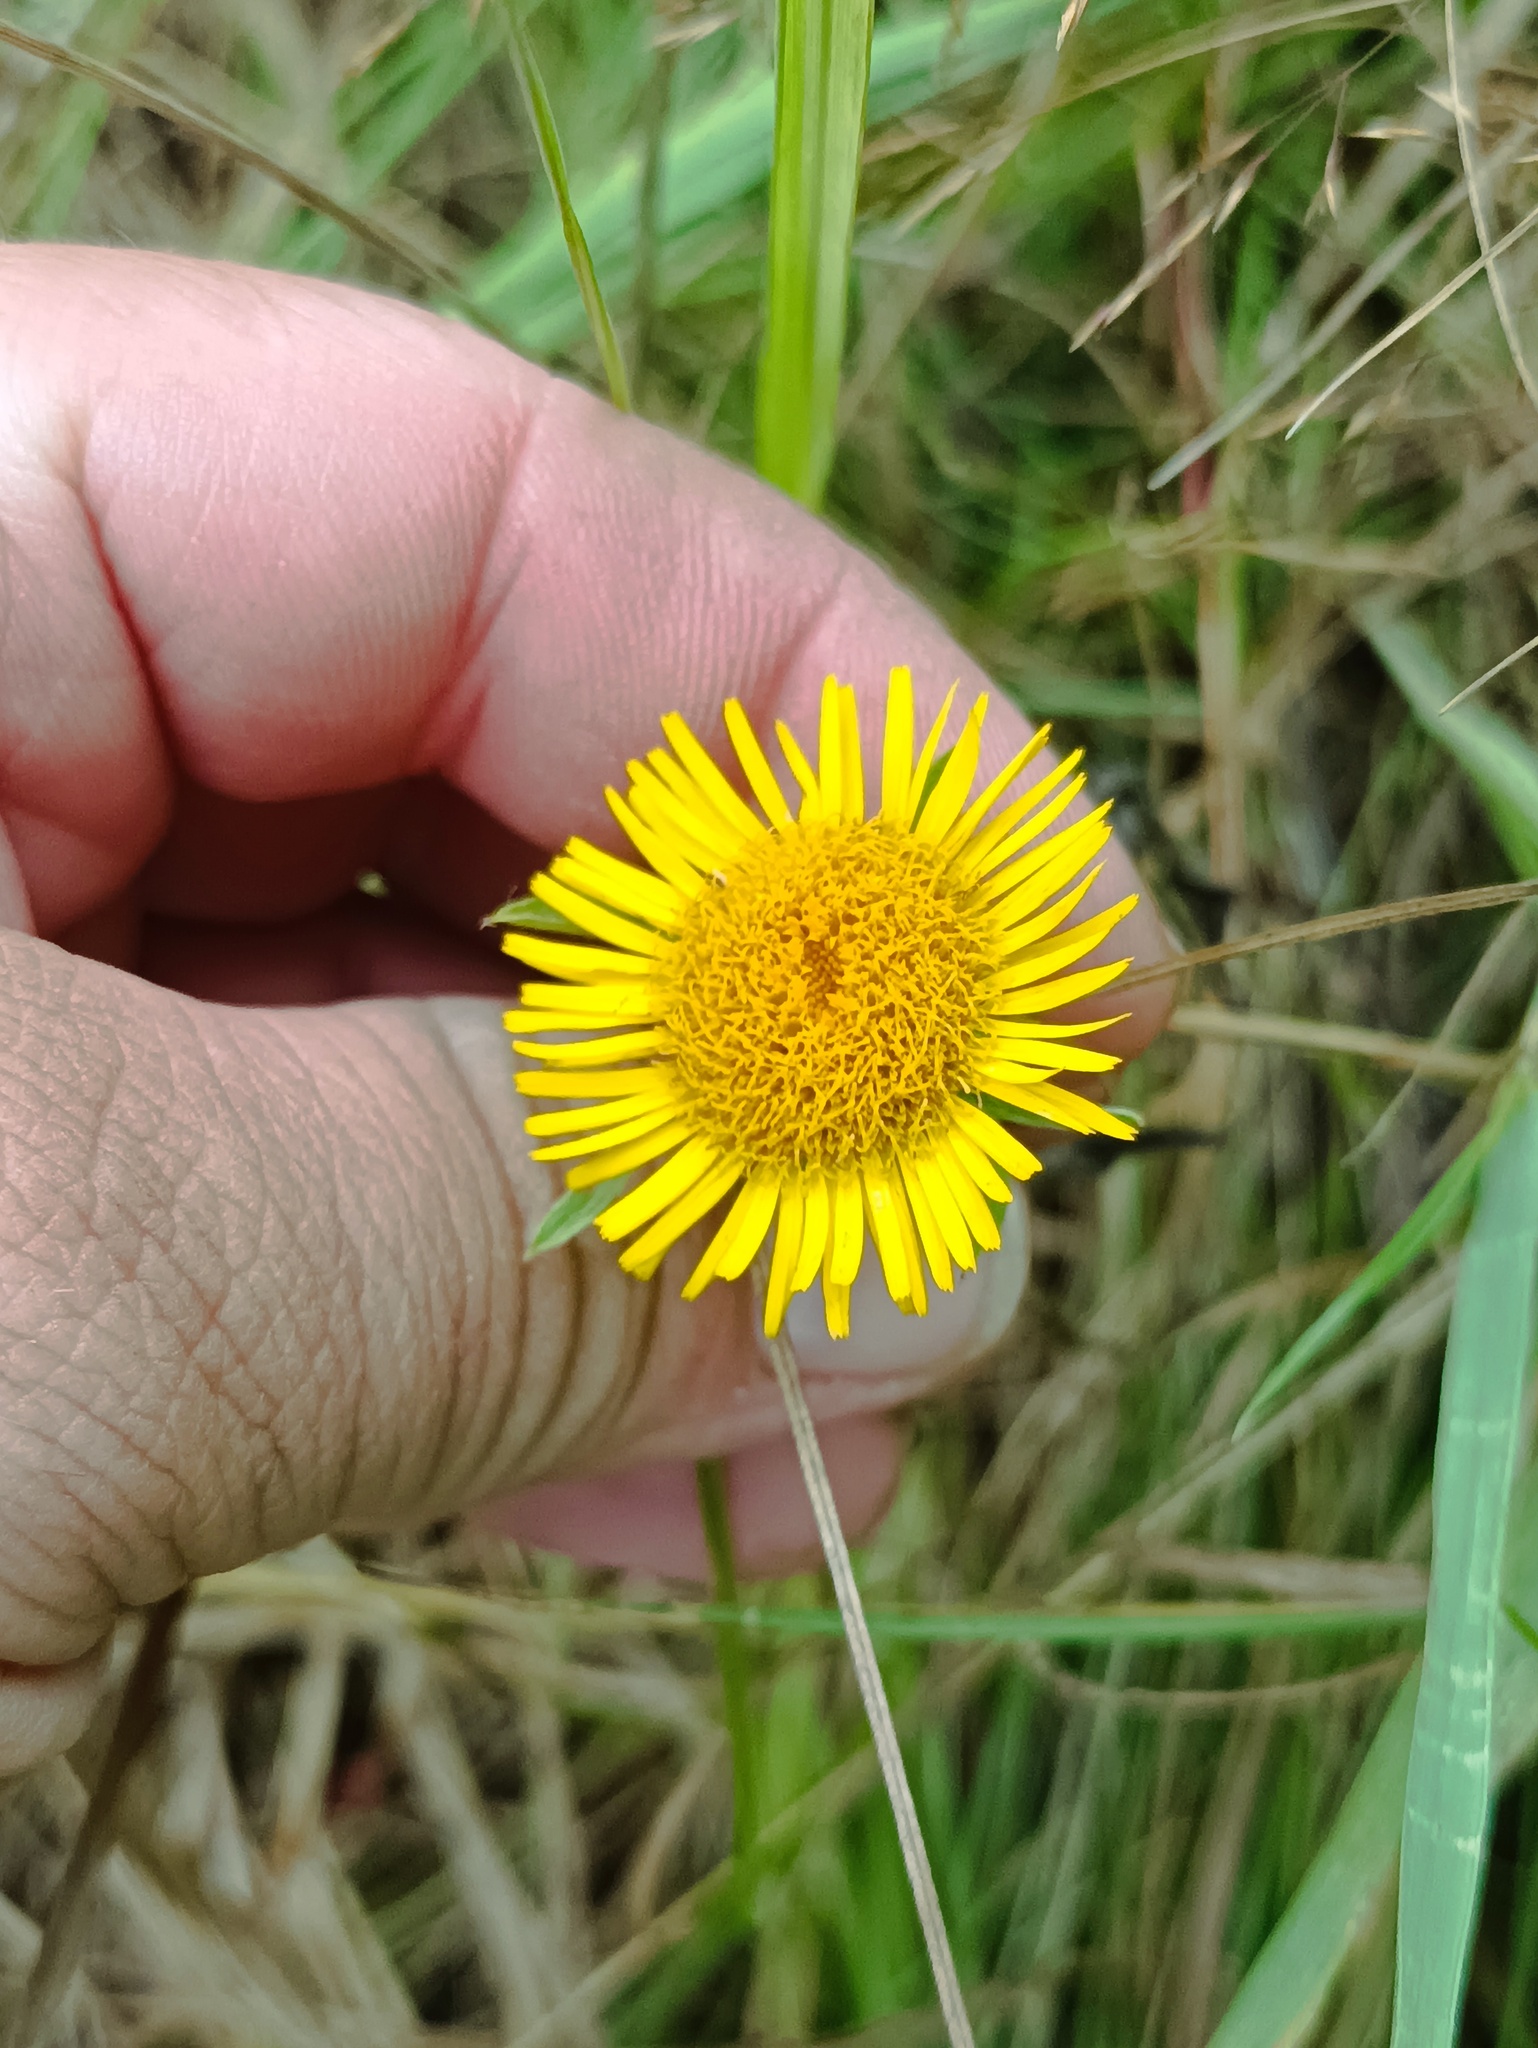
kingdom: Plantae
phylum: Tracheophyta
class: Magnoliopsida
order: Asterales
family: Asteraceae
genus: Pentanema
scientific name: Pentanema britannicum
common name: British elecampane
